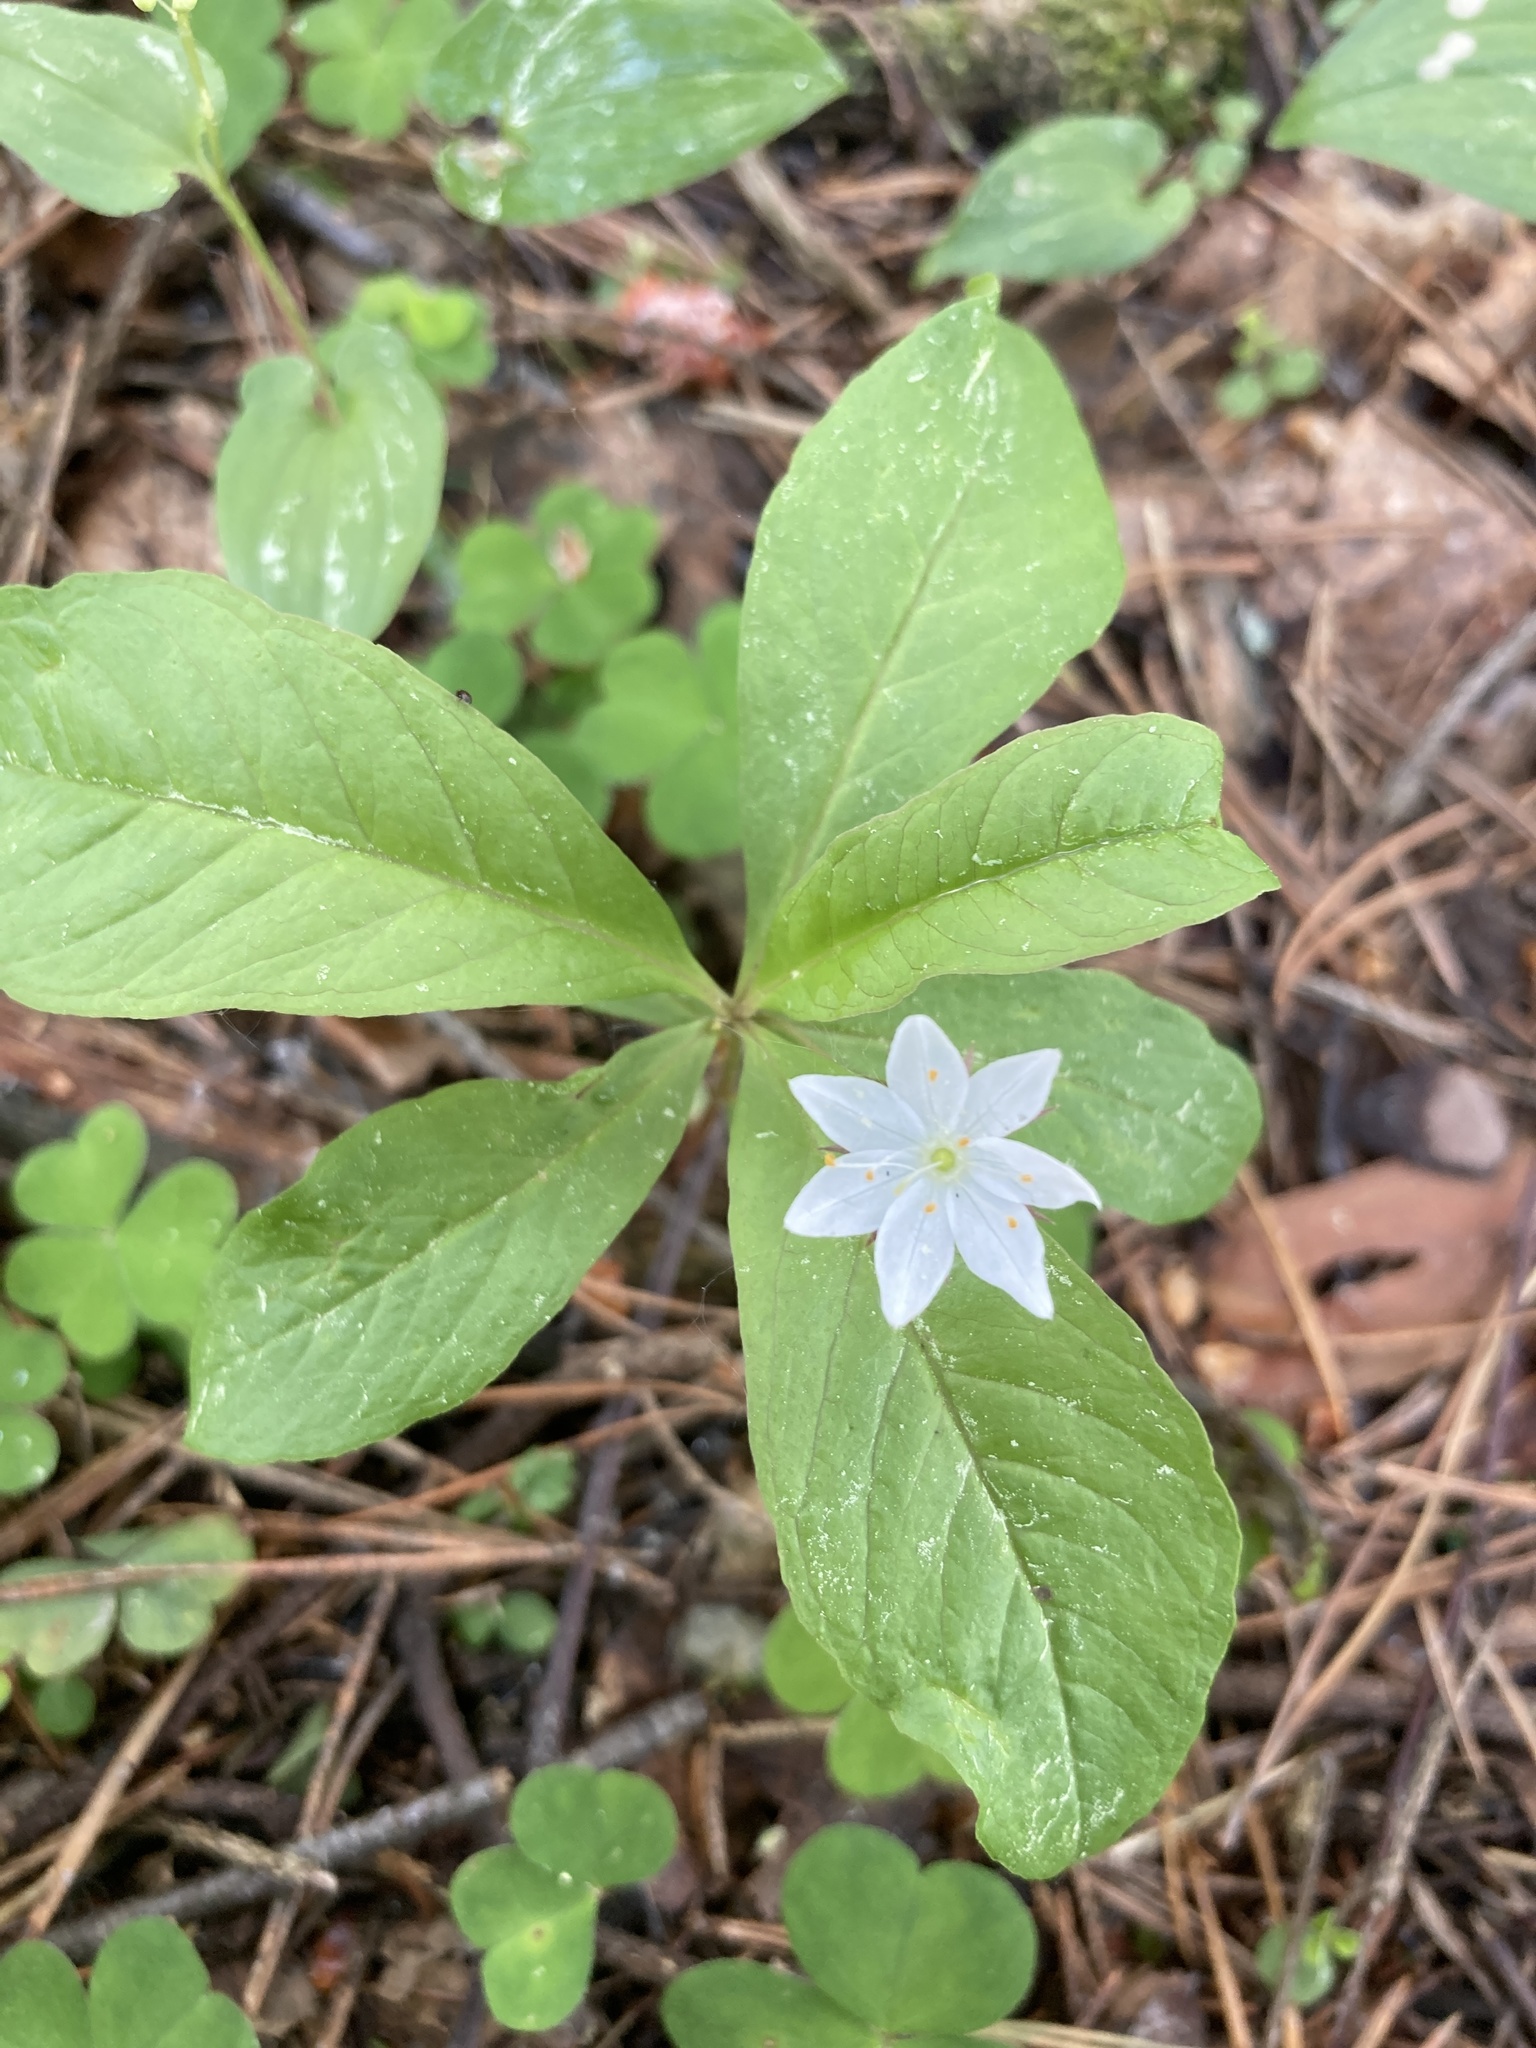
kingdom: Plantae
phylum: Tracheophyta
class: Magnoliopsida
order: Ericales
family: Primulaceae
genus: Lysimachia
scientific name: Lysimachia europaea
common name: Arctic starflower
